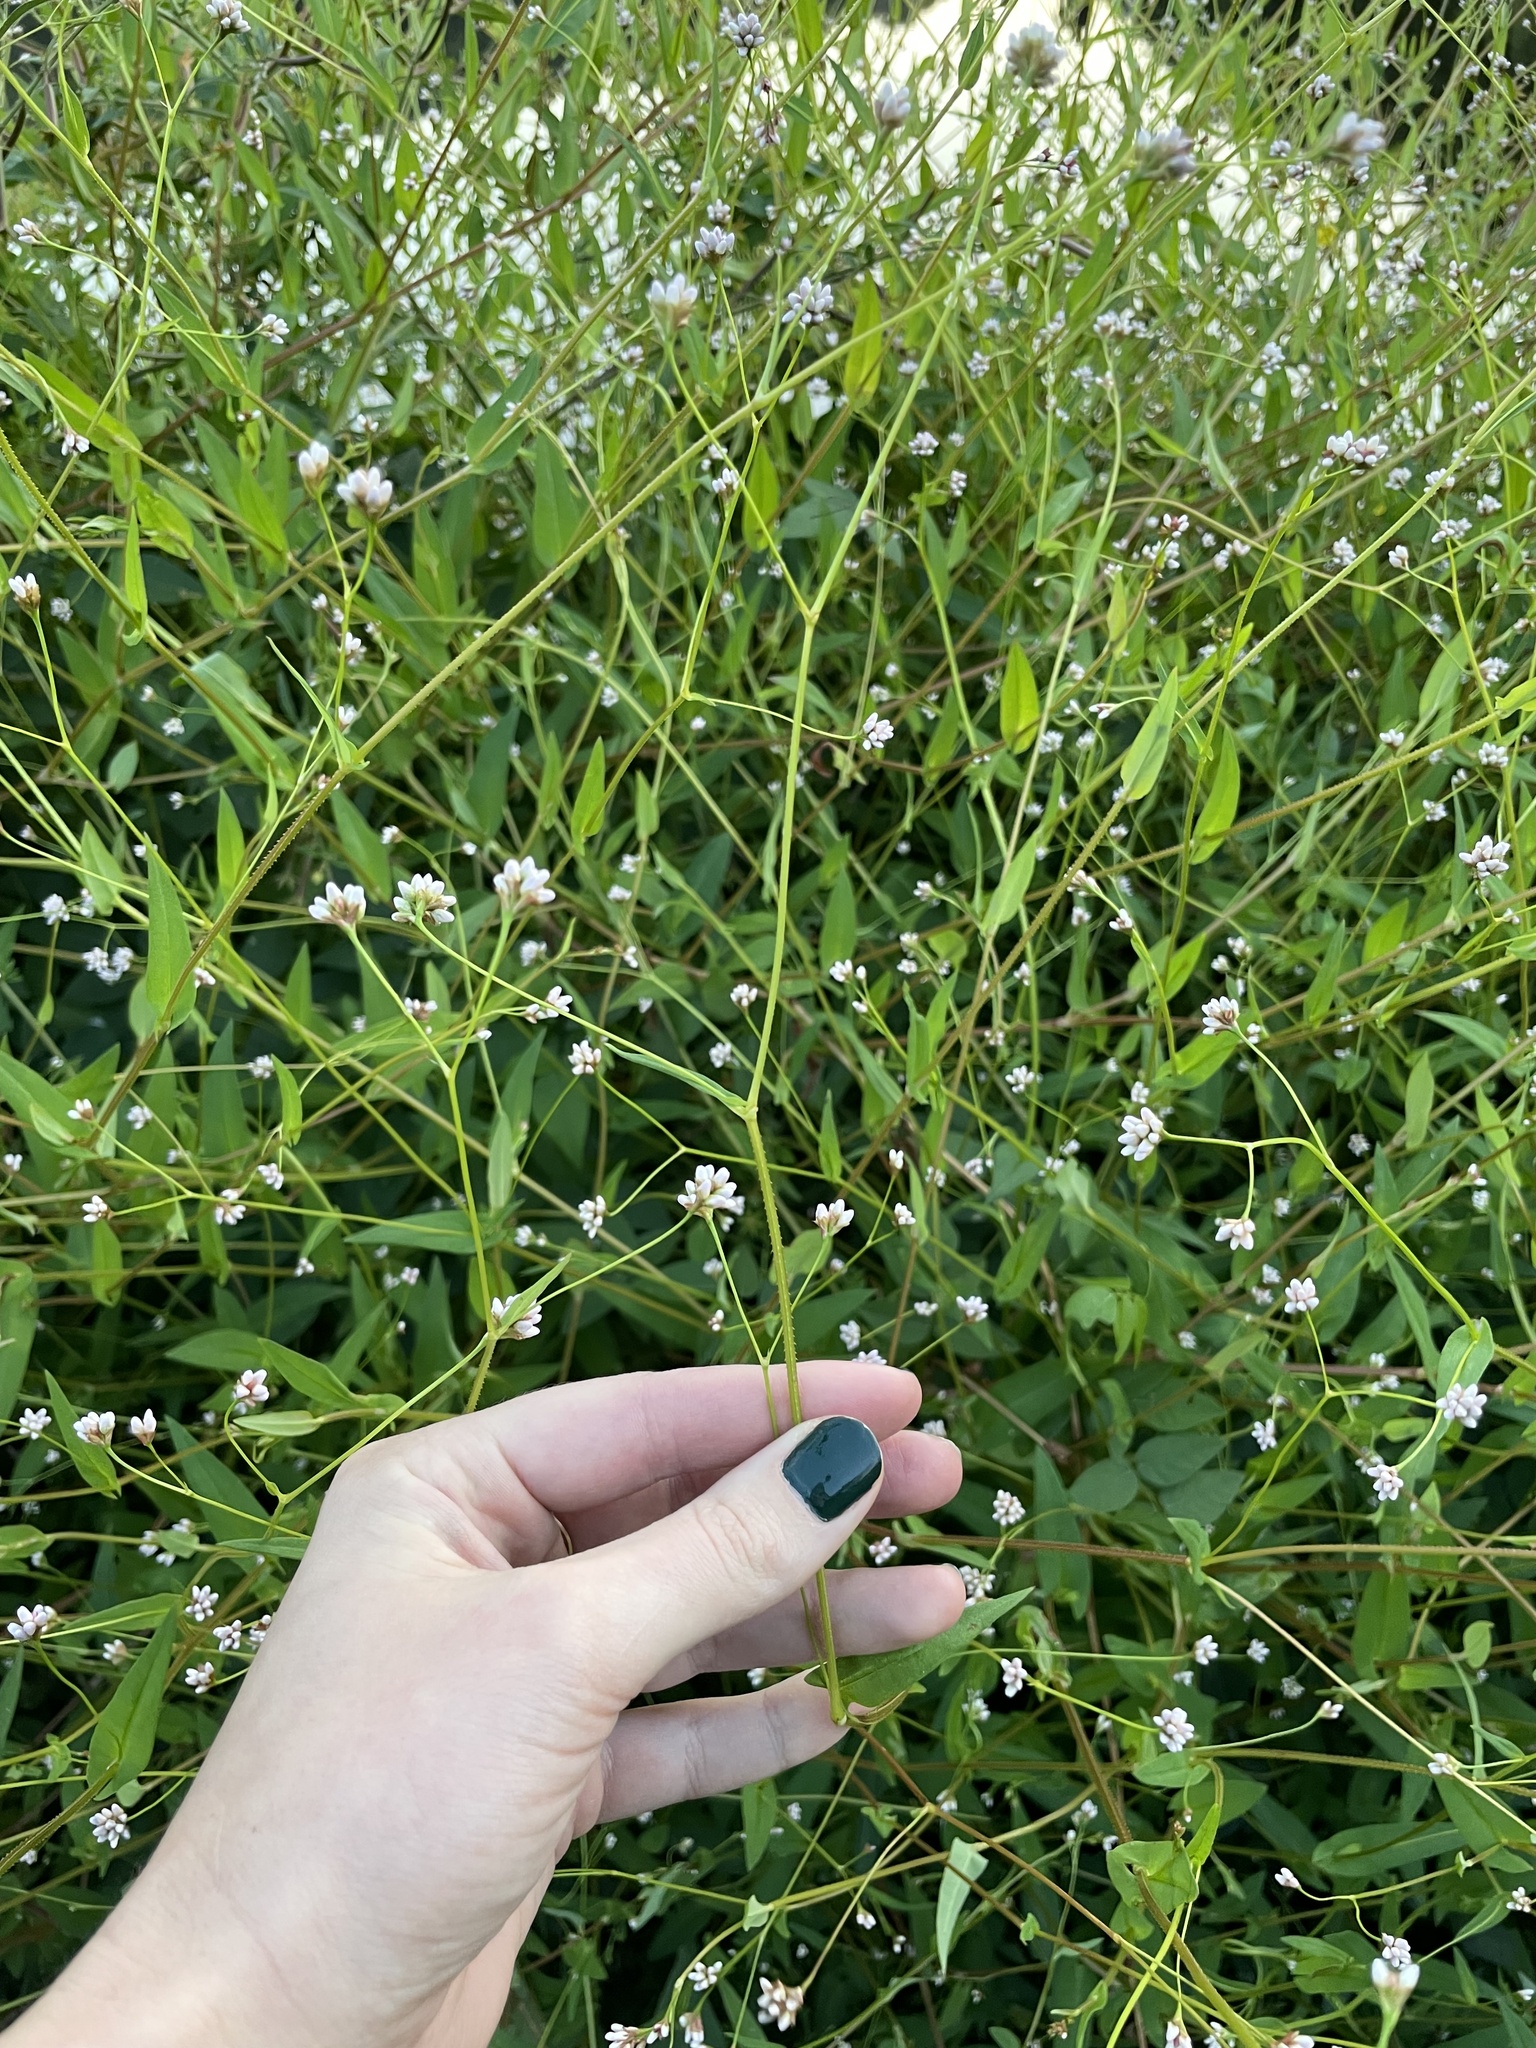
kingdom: Plantae
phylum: Tracheophyta
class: Magnoliopsida
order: Caryophyllales
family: Polygonaceae
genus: Persicaria
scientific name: Persicaria sagittata
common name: American tearthumb
